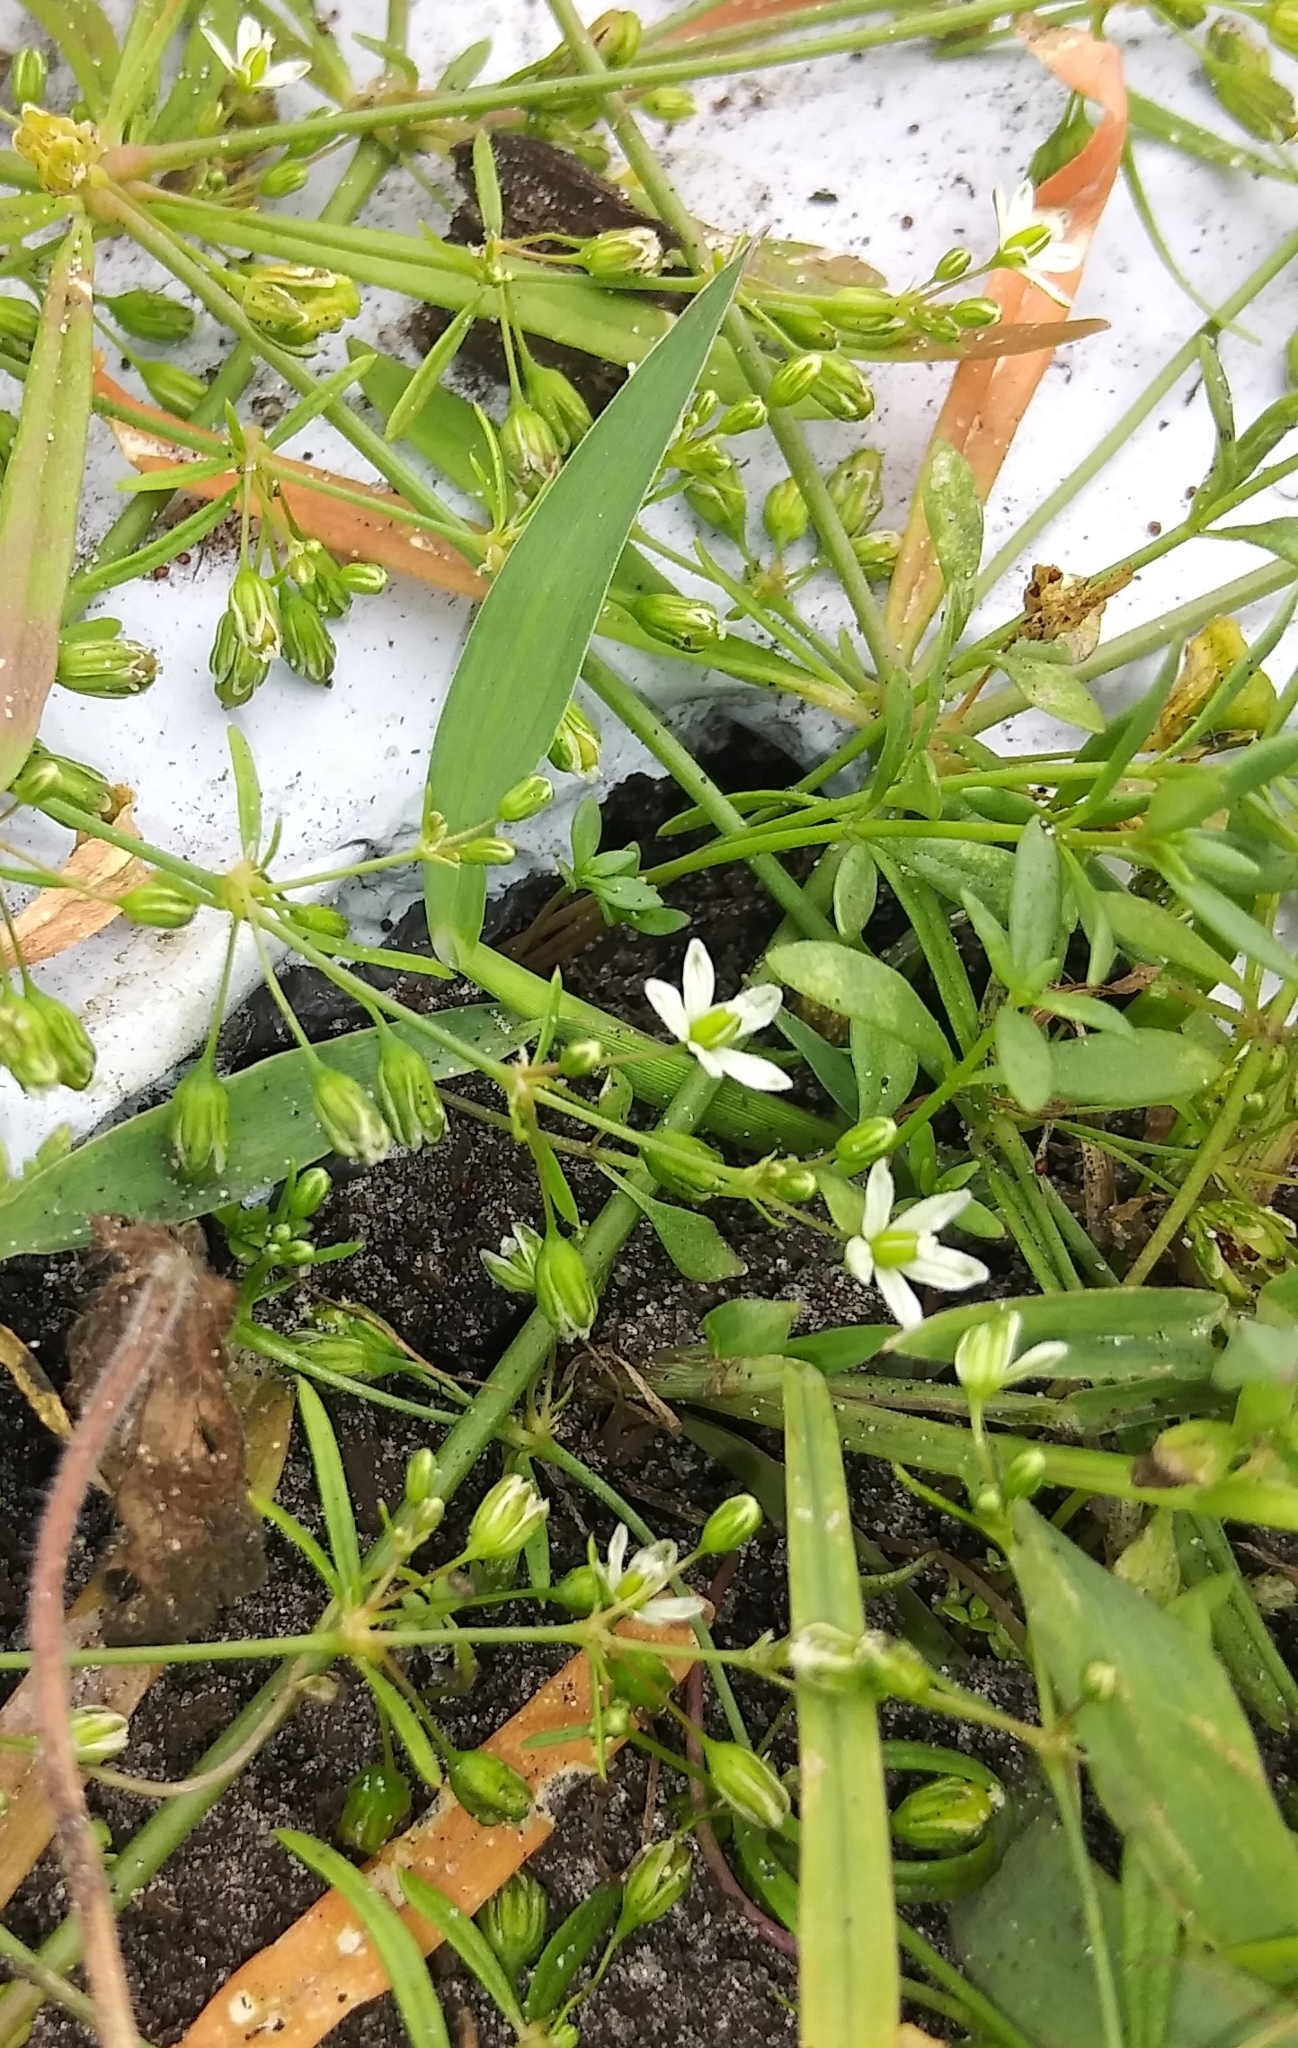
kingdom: Plantae
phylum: Tracheophyta
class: Magnoliopsida
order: Caryophyllales
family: Molluginaceae
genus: Mollugo
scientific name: Mollugo verticillata
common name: Green carpetweed
